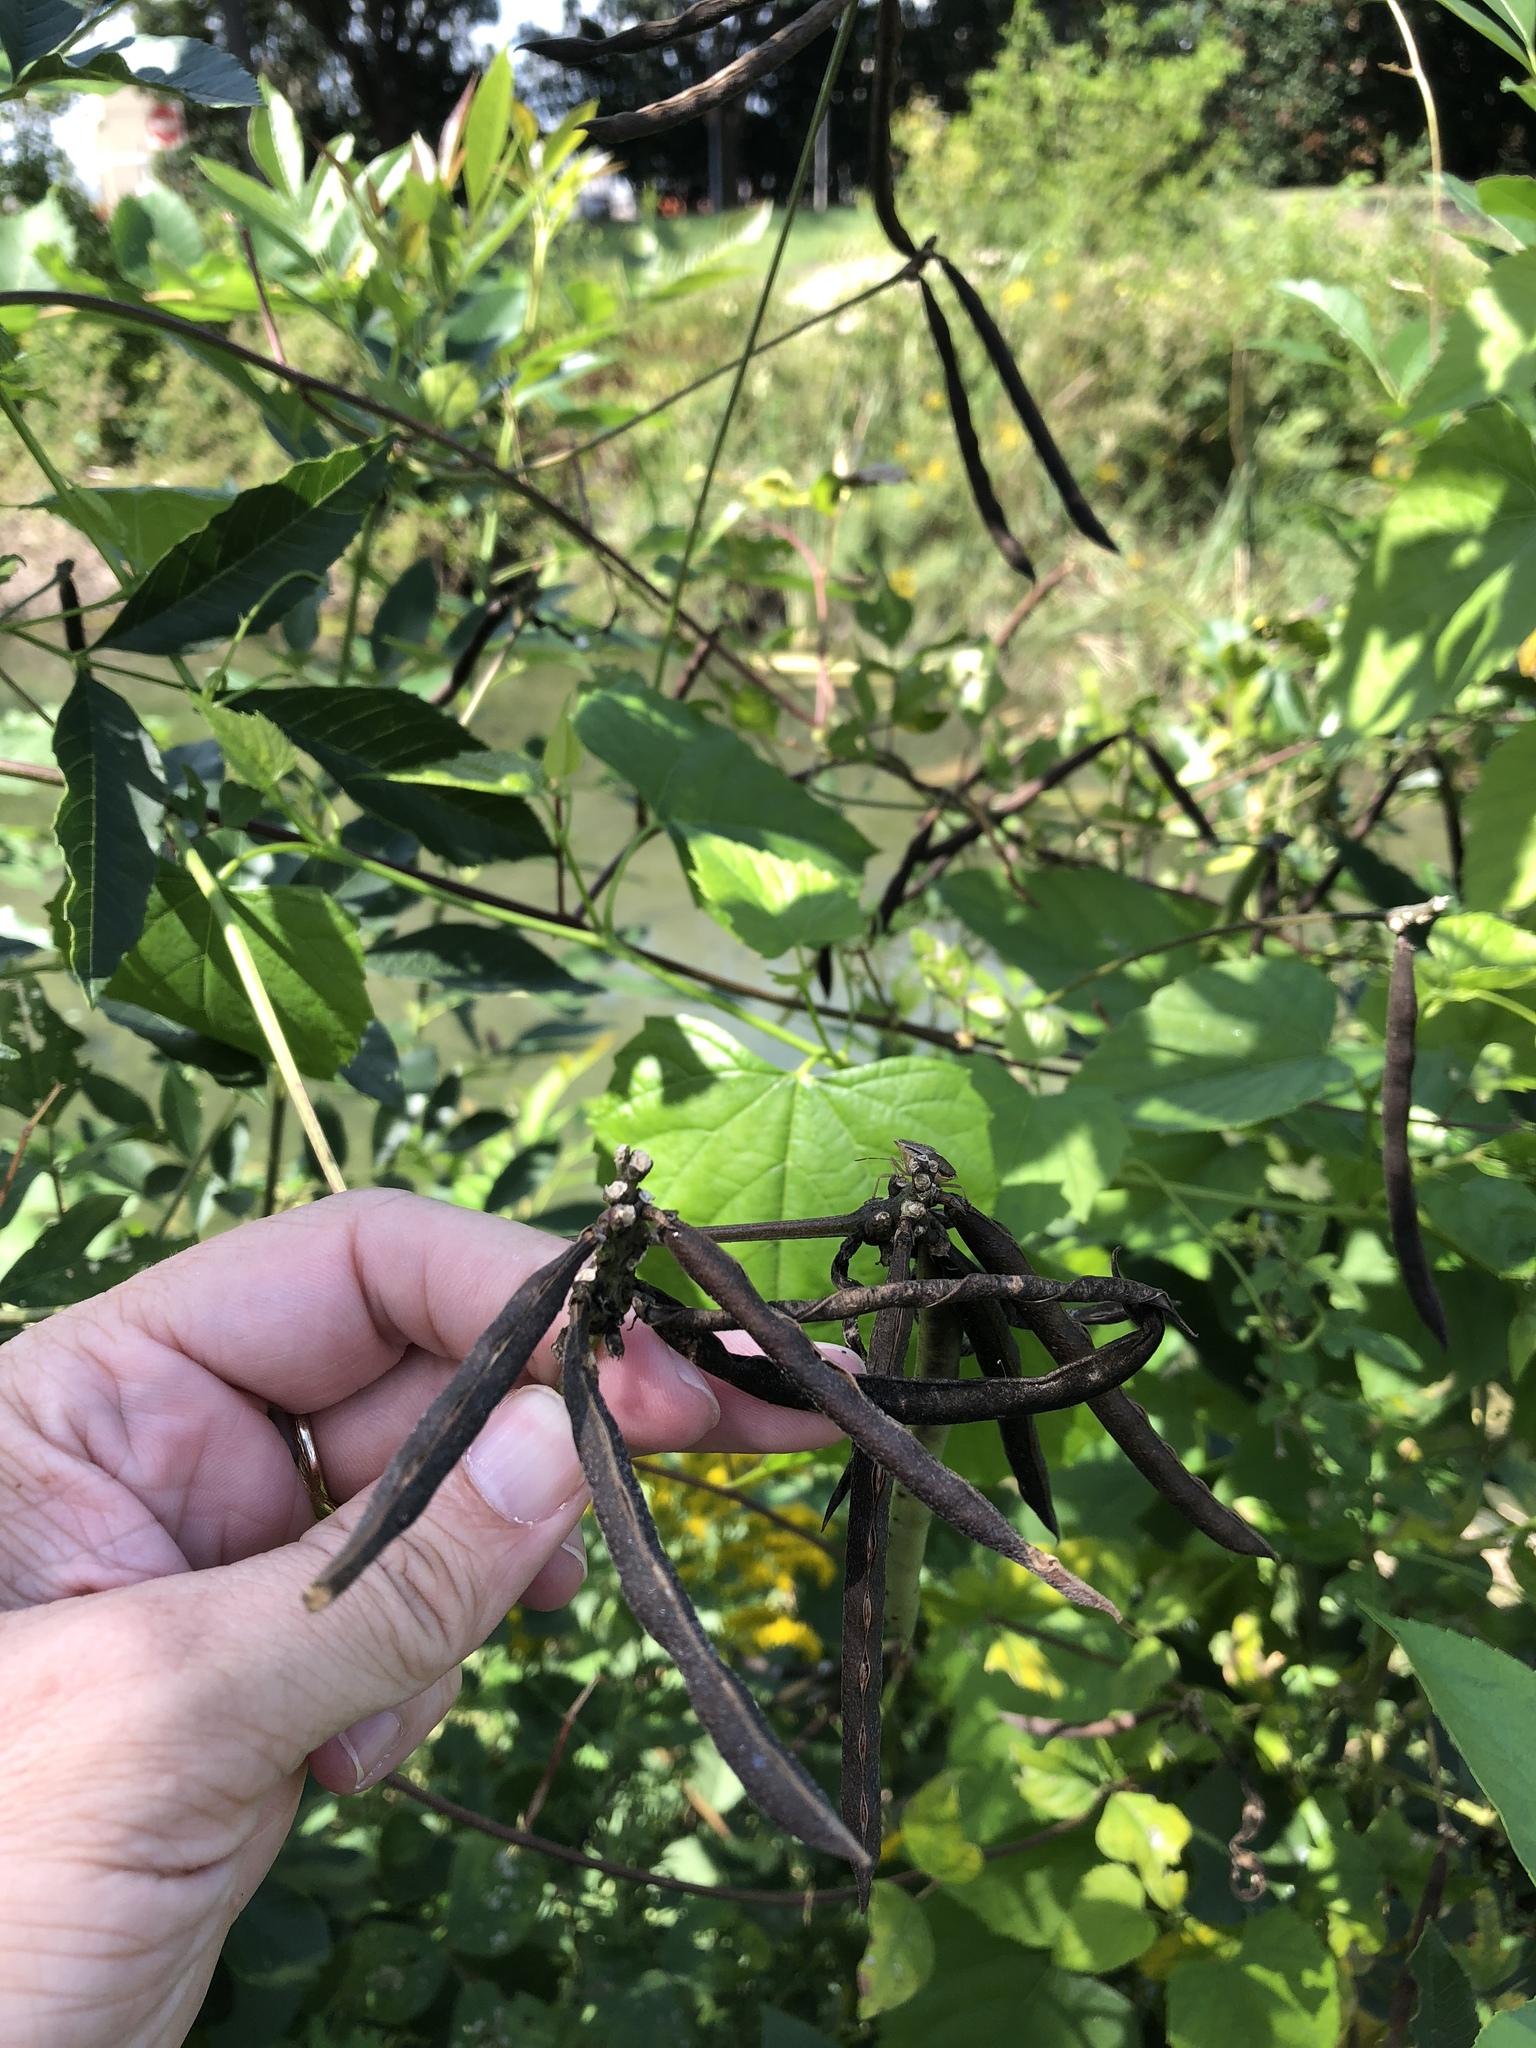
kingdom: Plantae
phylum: Tracheophyta
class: Magnoliopsida
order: Fabales
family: Fabaceae
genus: Strophostyles
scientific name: Strophostyles helvola
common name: Trailing wild bean
